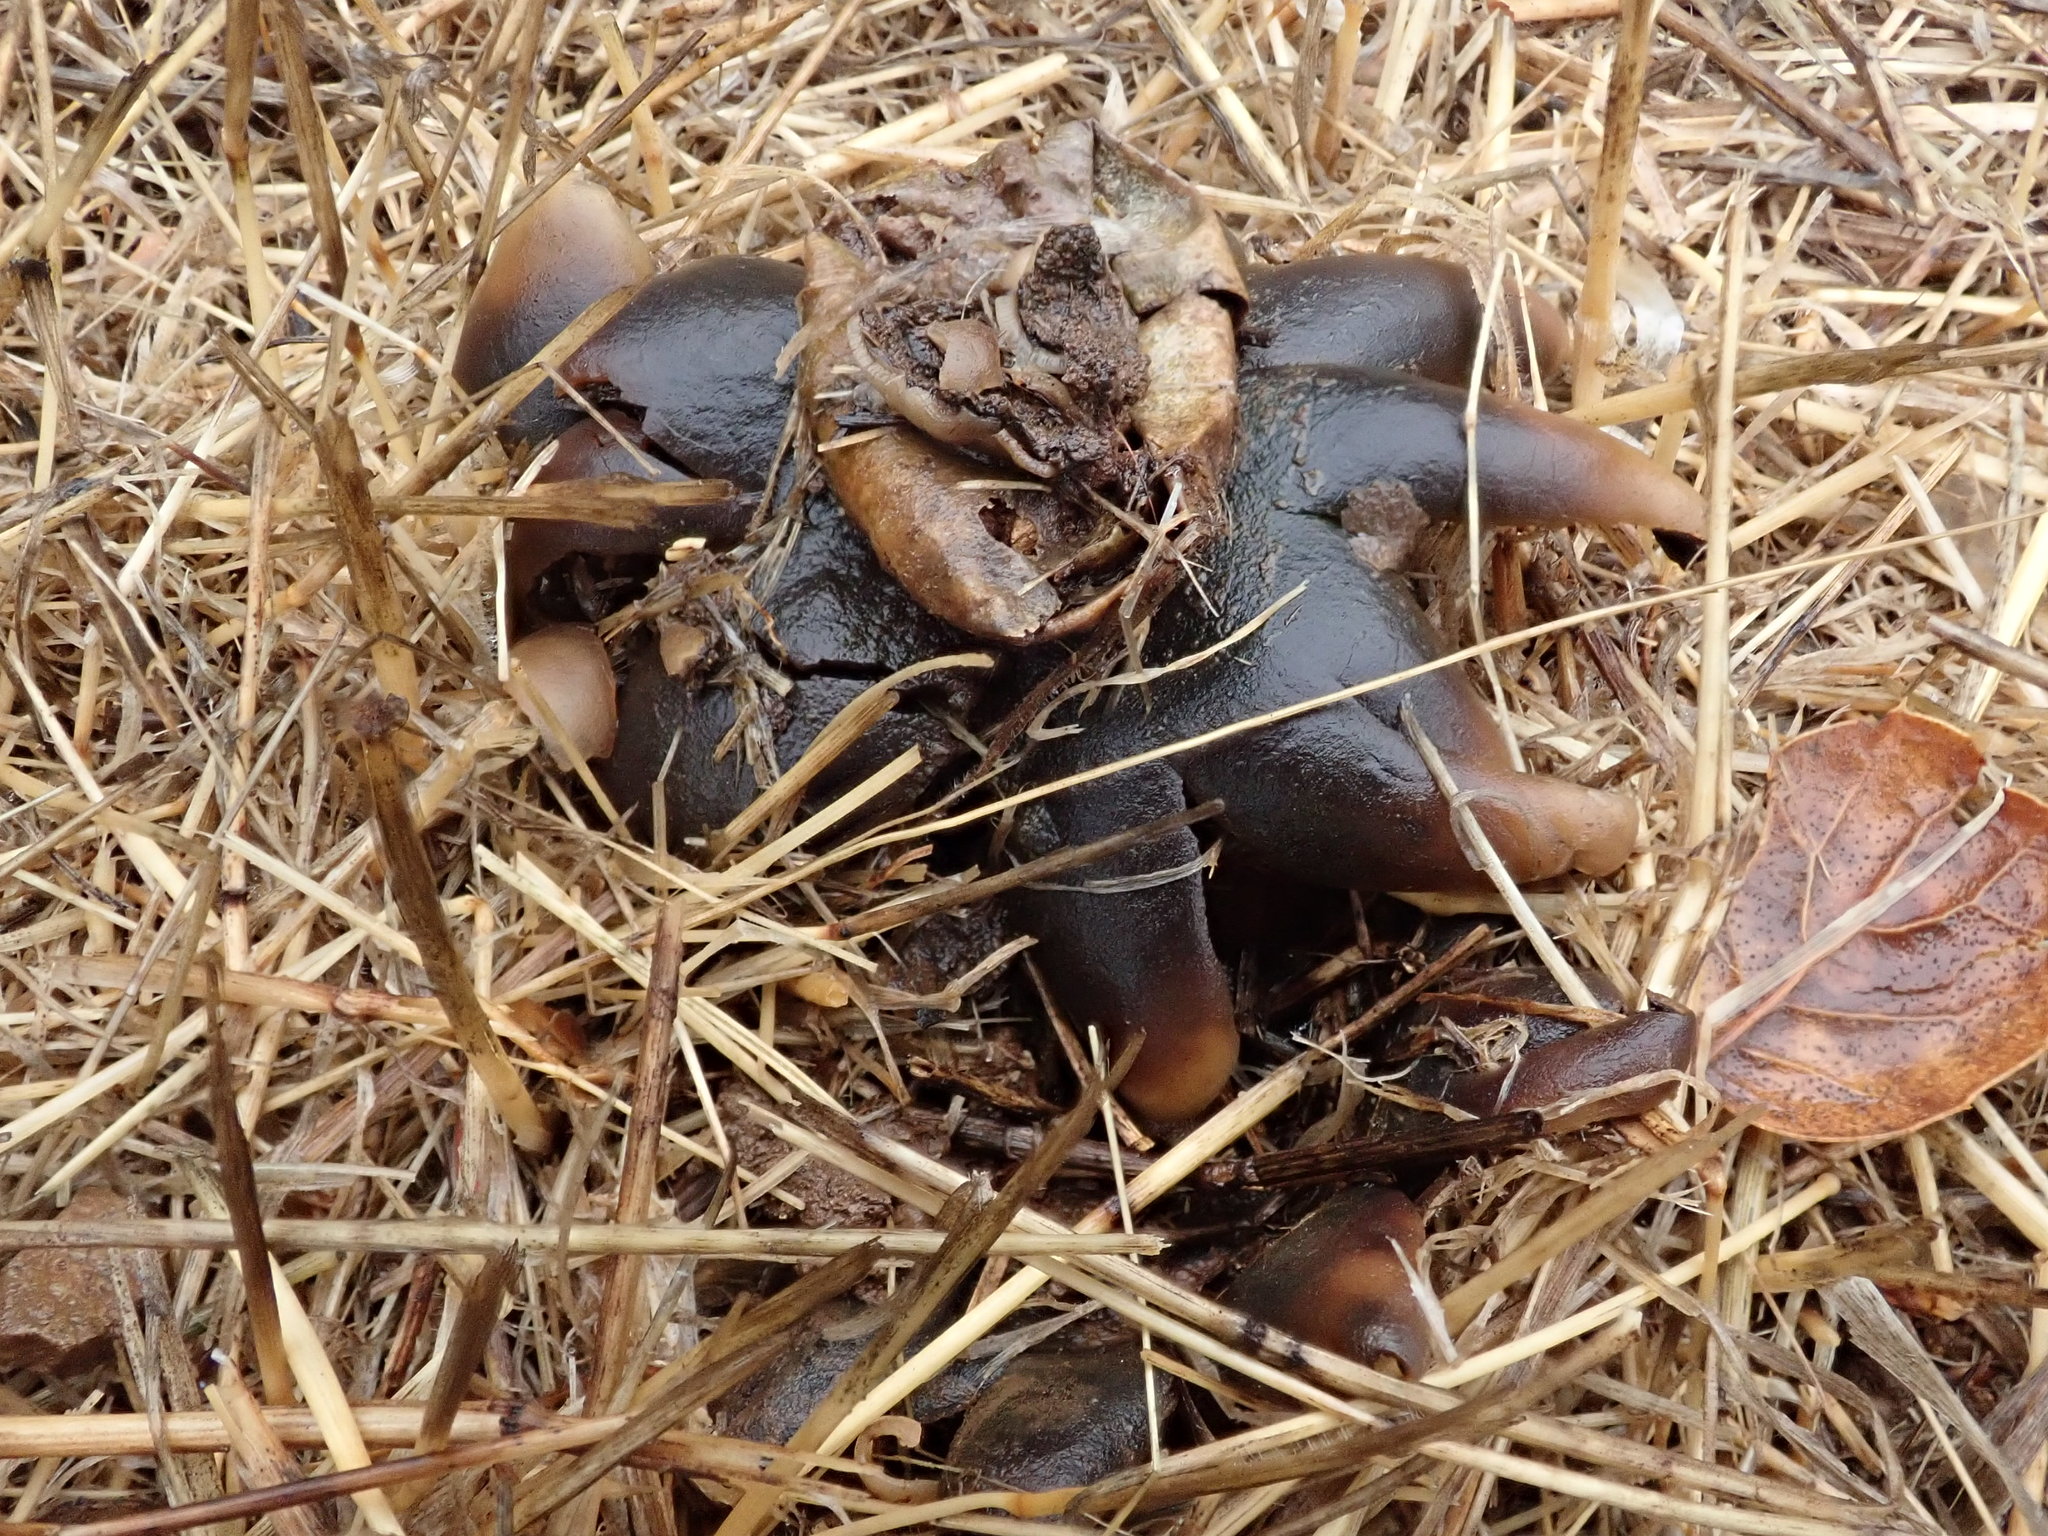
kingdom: Fungi
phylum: Basidiomycota
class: Agaricomycetes
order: Boletales
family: Diplocystidiaceae
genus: Astraeus
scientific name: Astraeus hygrometricus
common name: Barometer earthstar
